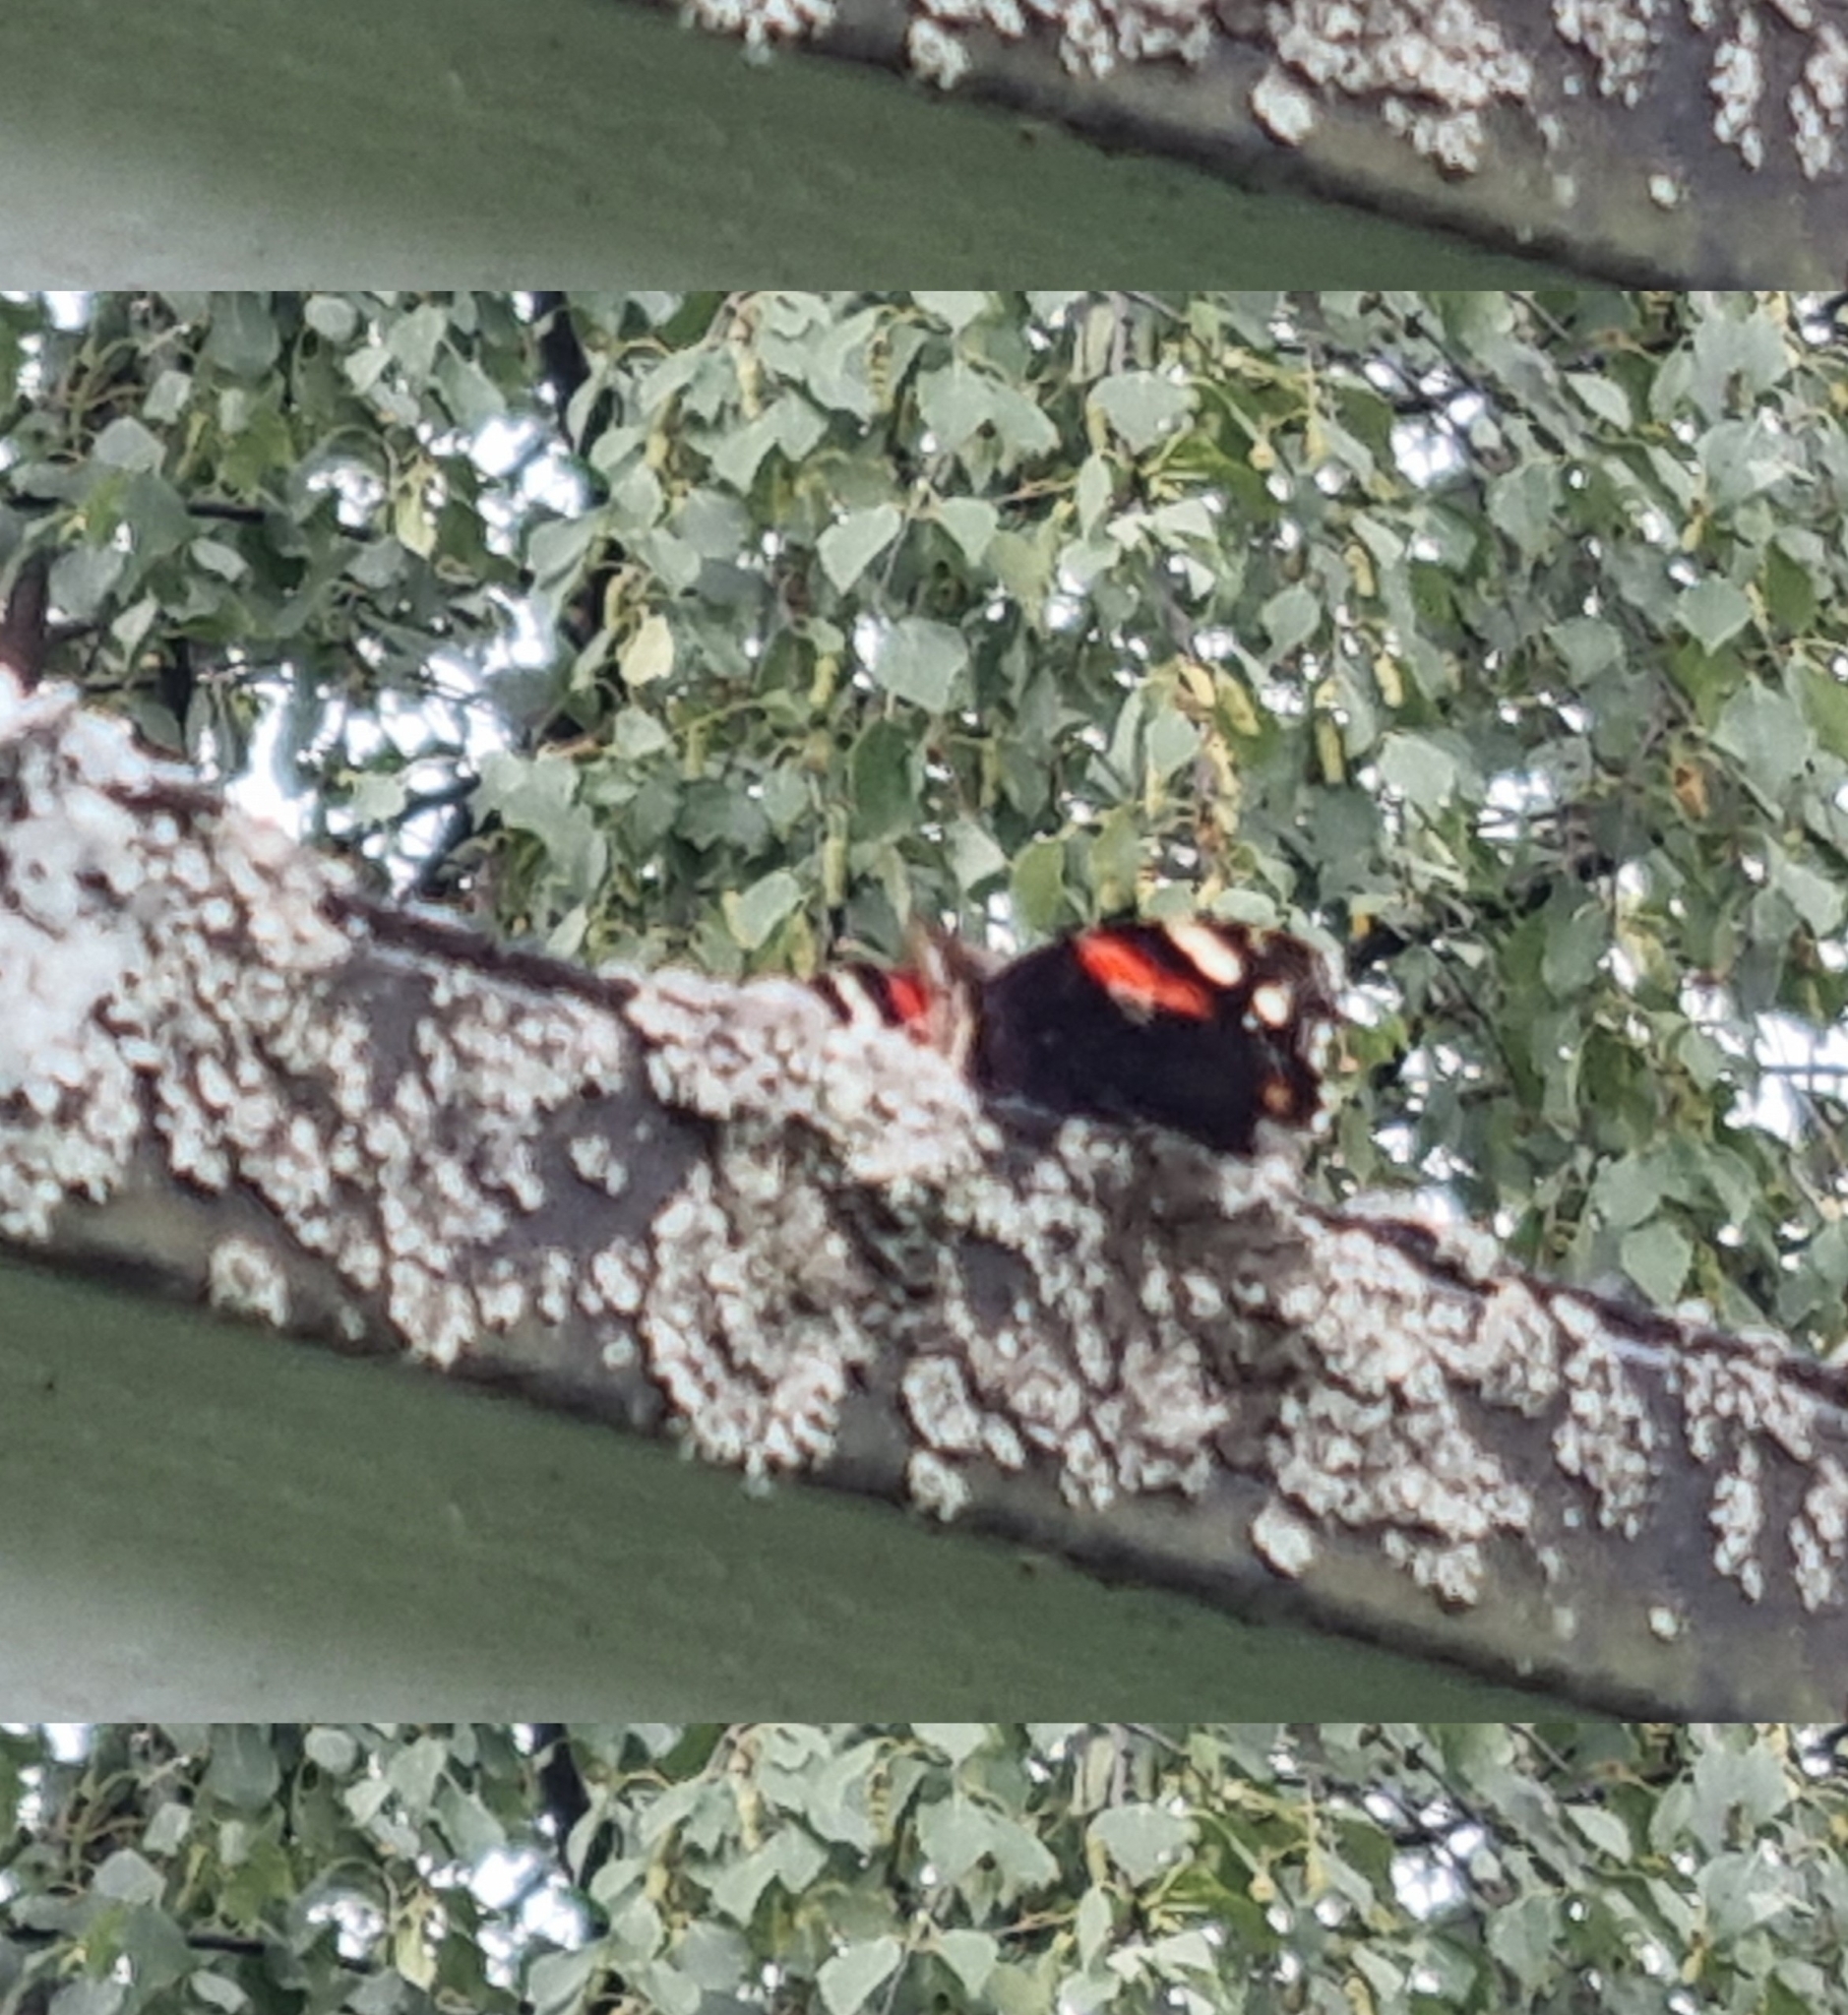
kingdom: Animalia
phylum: Arthropoda
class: Insecta
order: Lepidoptera
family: Nymphalidae
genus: Vanessa
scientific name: Vanessa atalanta
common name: Red admiral
